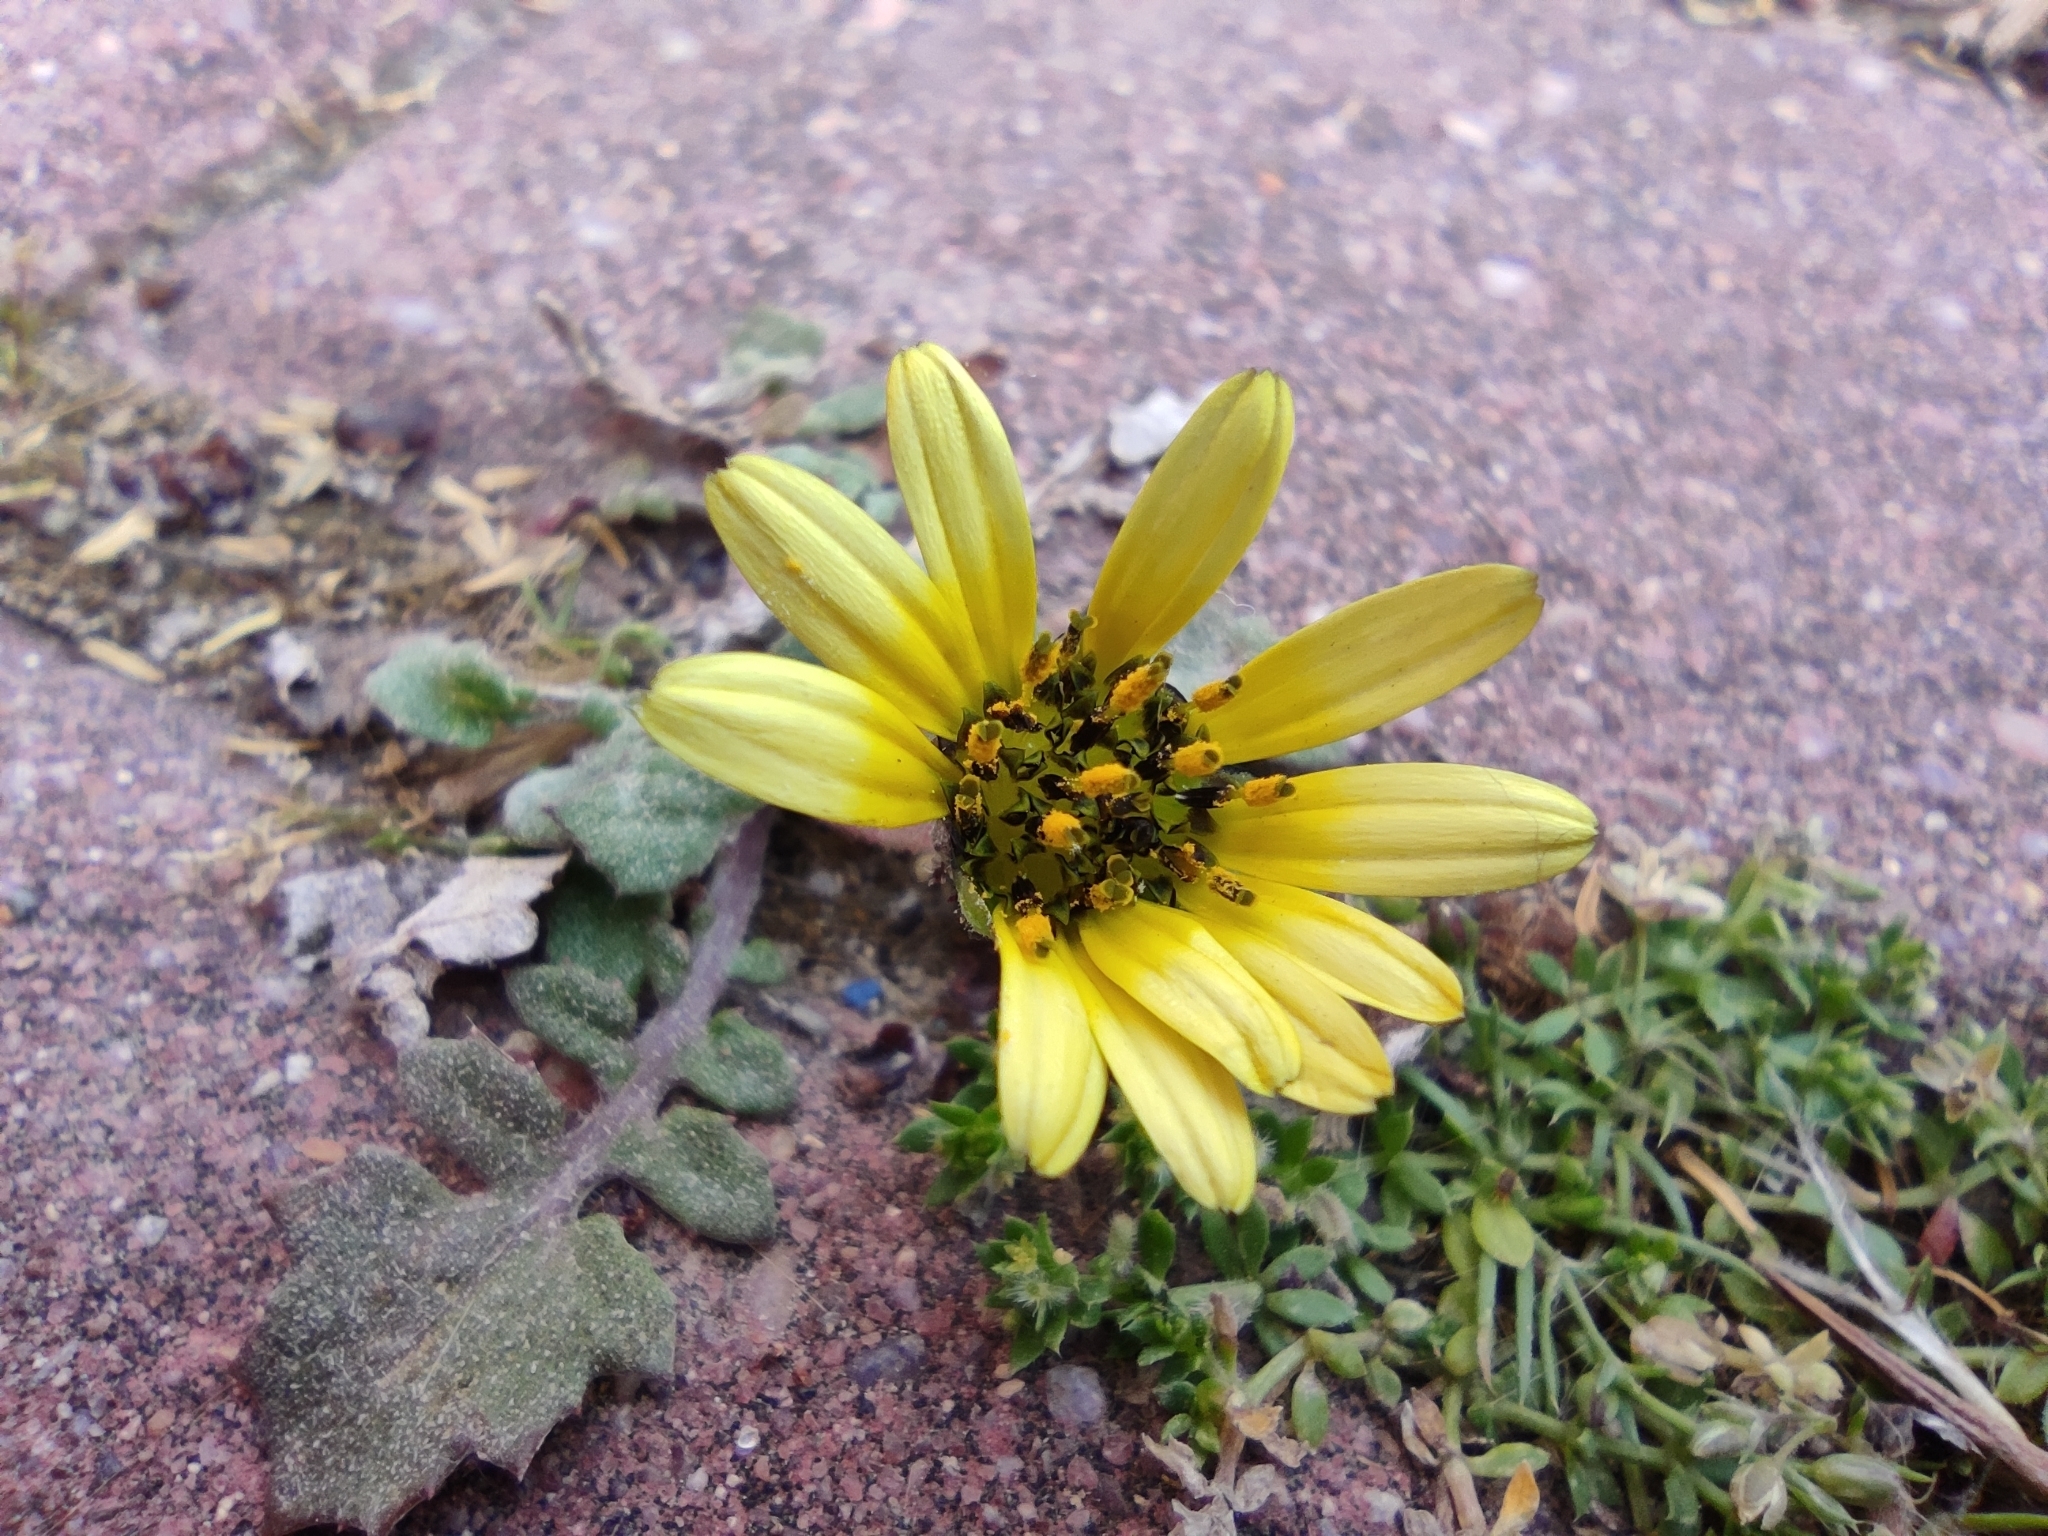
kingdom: Plantae
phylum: Tracheophyta
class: Magnoliopsida
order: Asterales
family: Asteraceae
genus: Arctotheca
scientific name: Arctotheca calendula
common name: Capeweed
